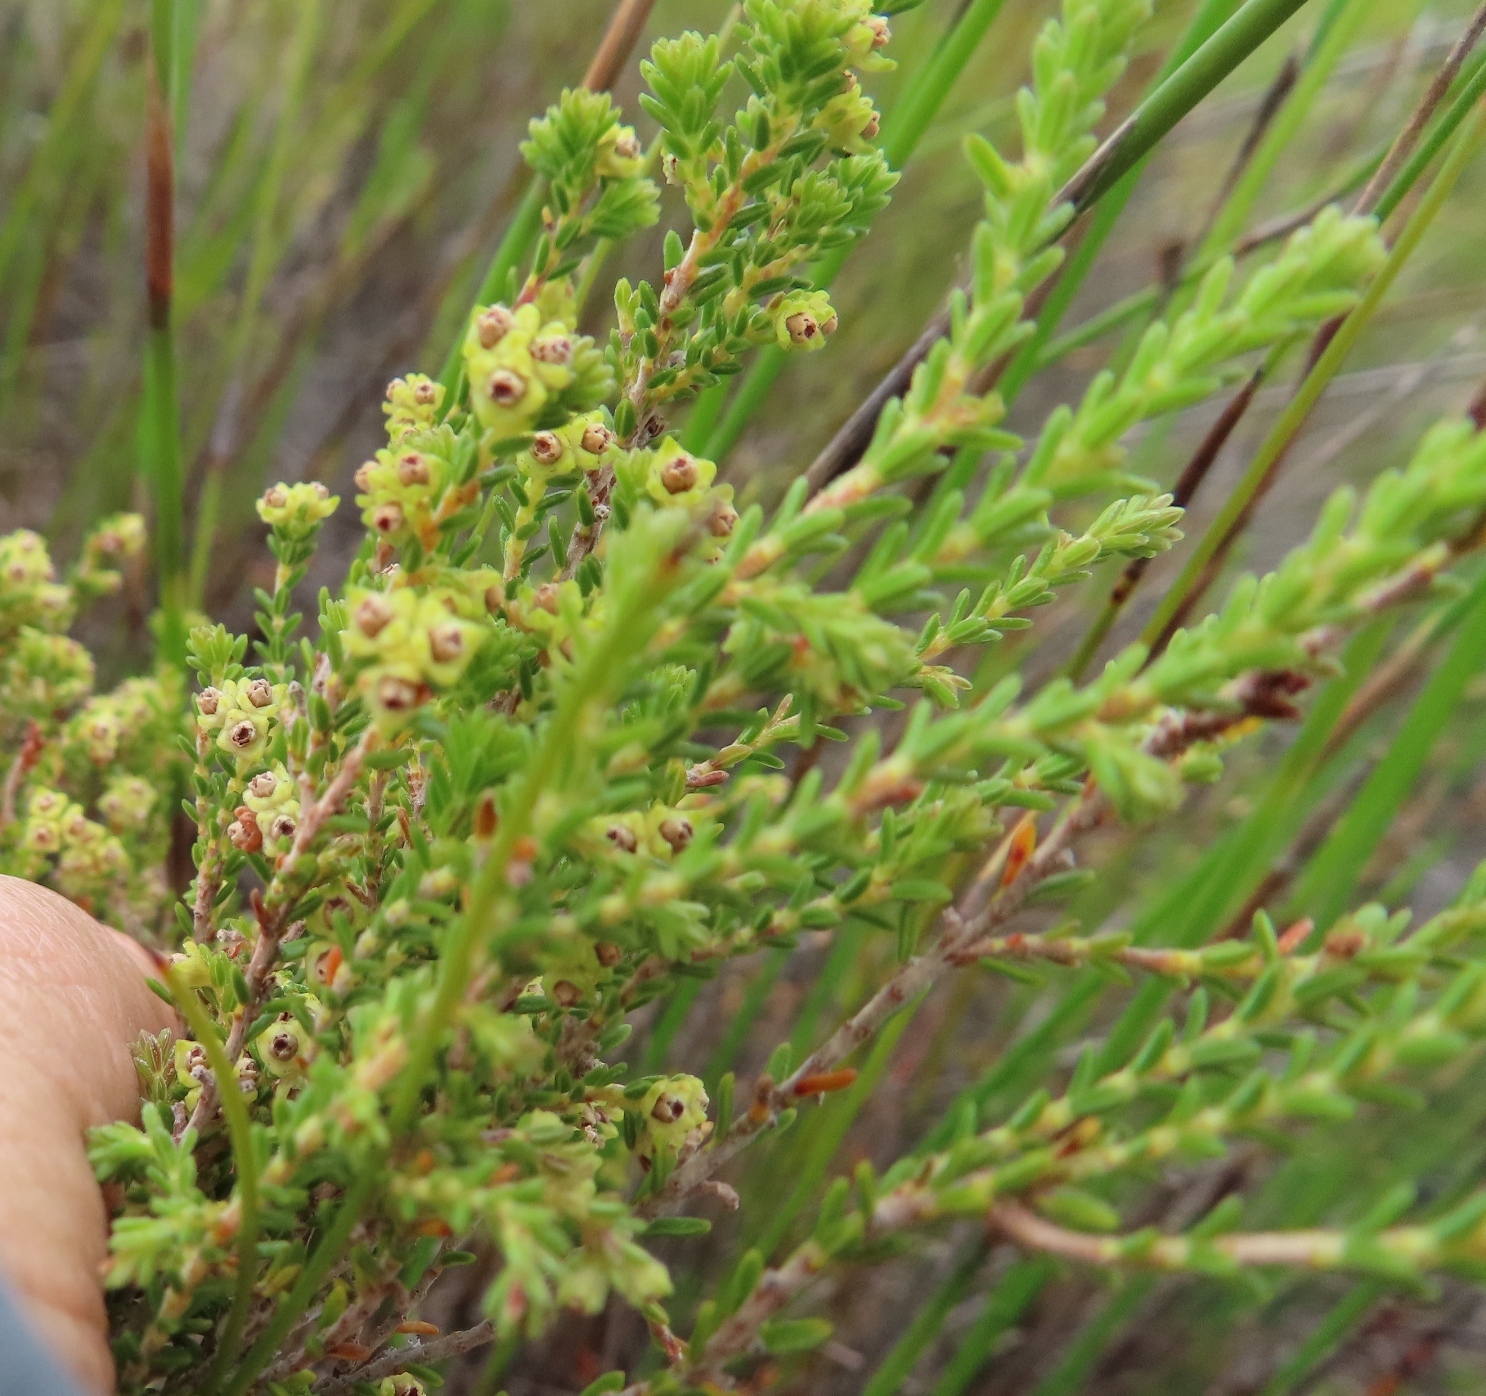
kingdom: Plantae
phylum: Tracheophyta
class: Magnoliopsida
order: Ericales
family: Ericaceae
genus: Erica
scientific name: Erica serrata
